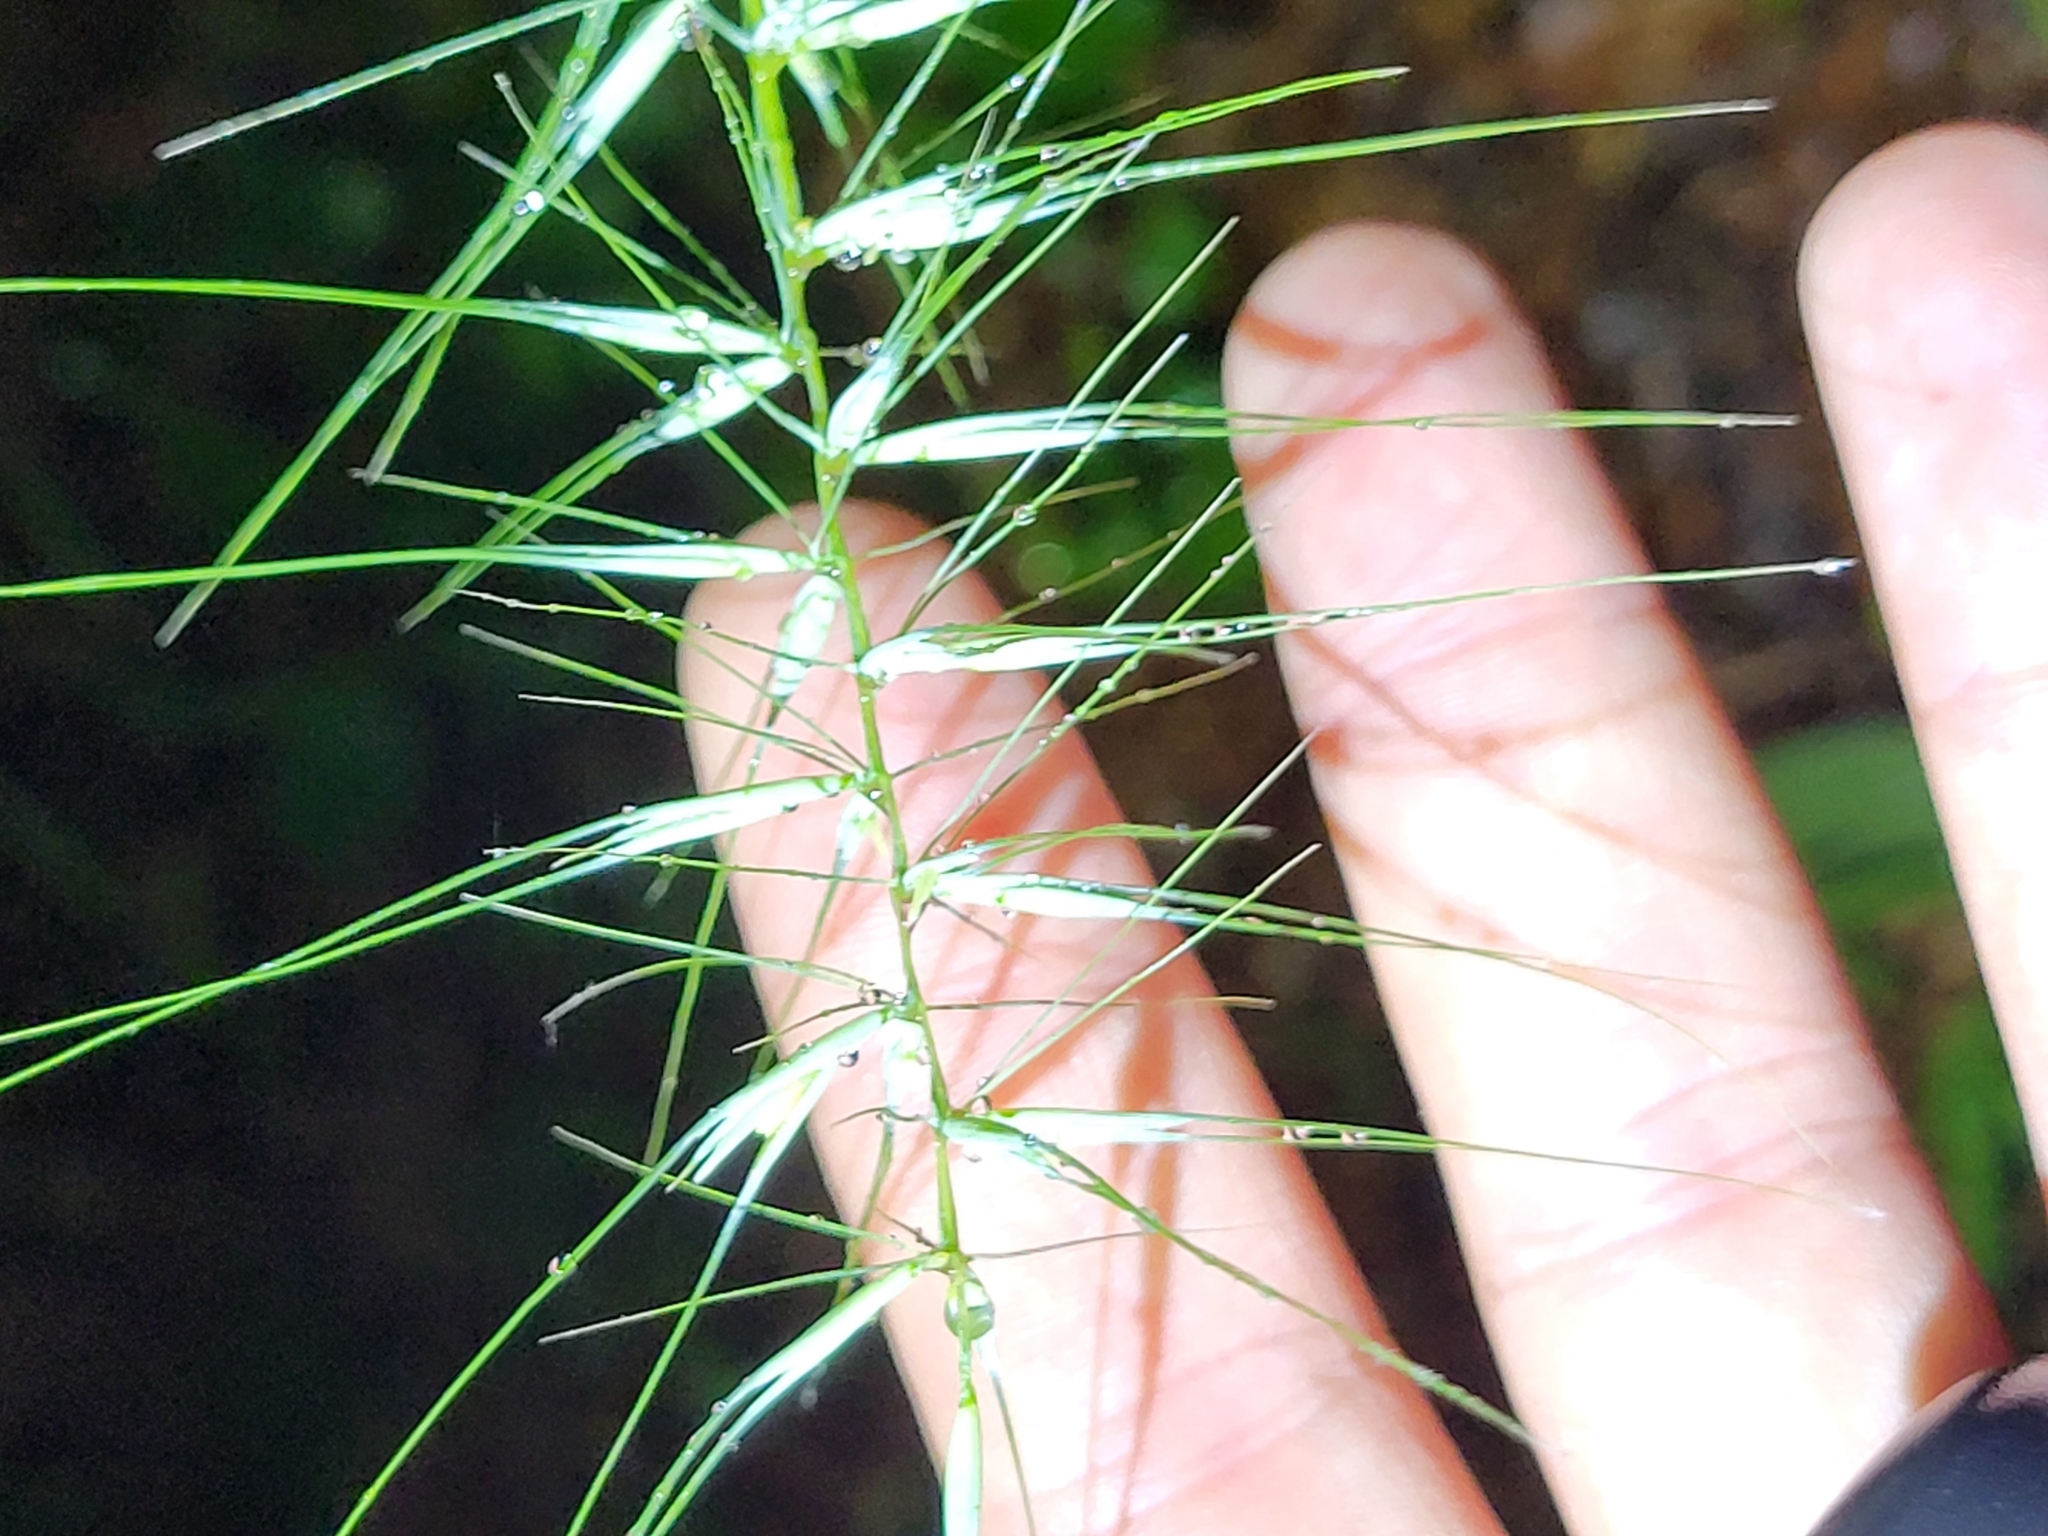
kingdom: Plantae
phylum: Tracheophyta
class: Liliopsida
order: Poales
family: Poaceae
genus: Elymus
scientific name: Elymus hystrix
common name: Bottlebrush grass
